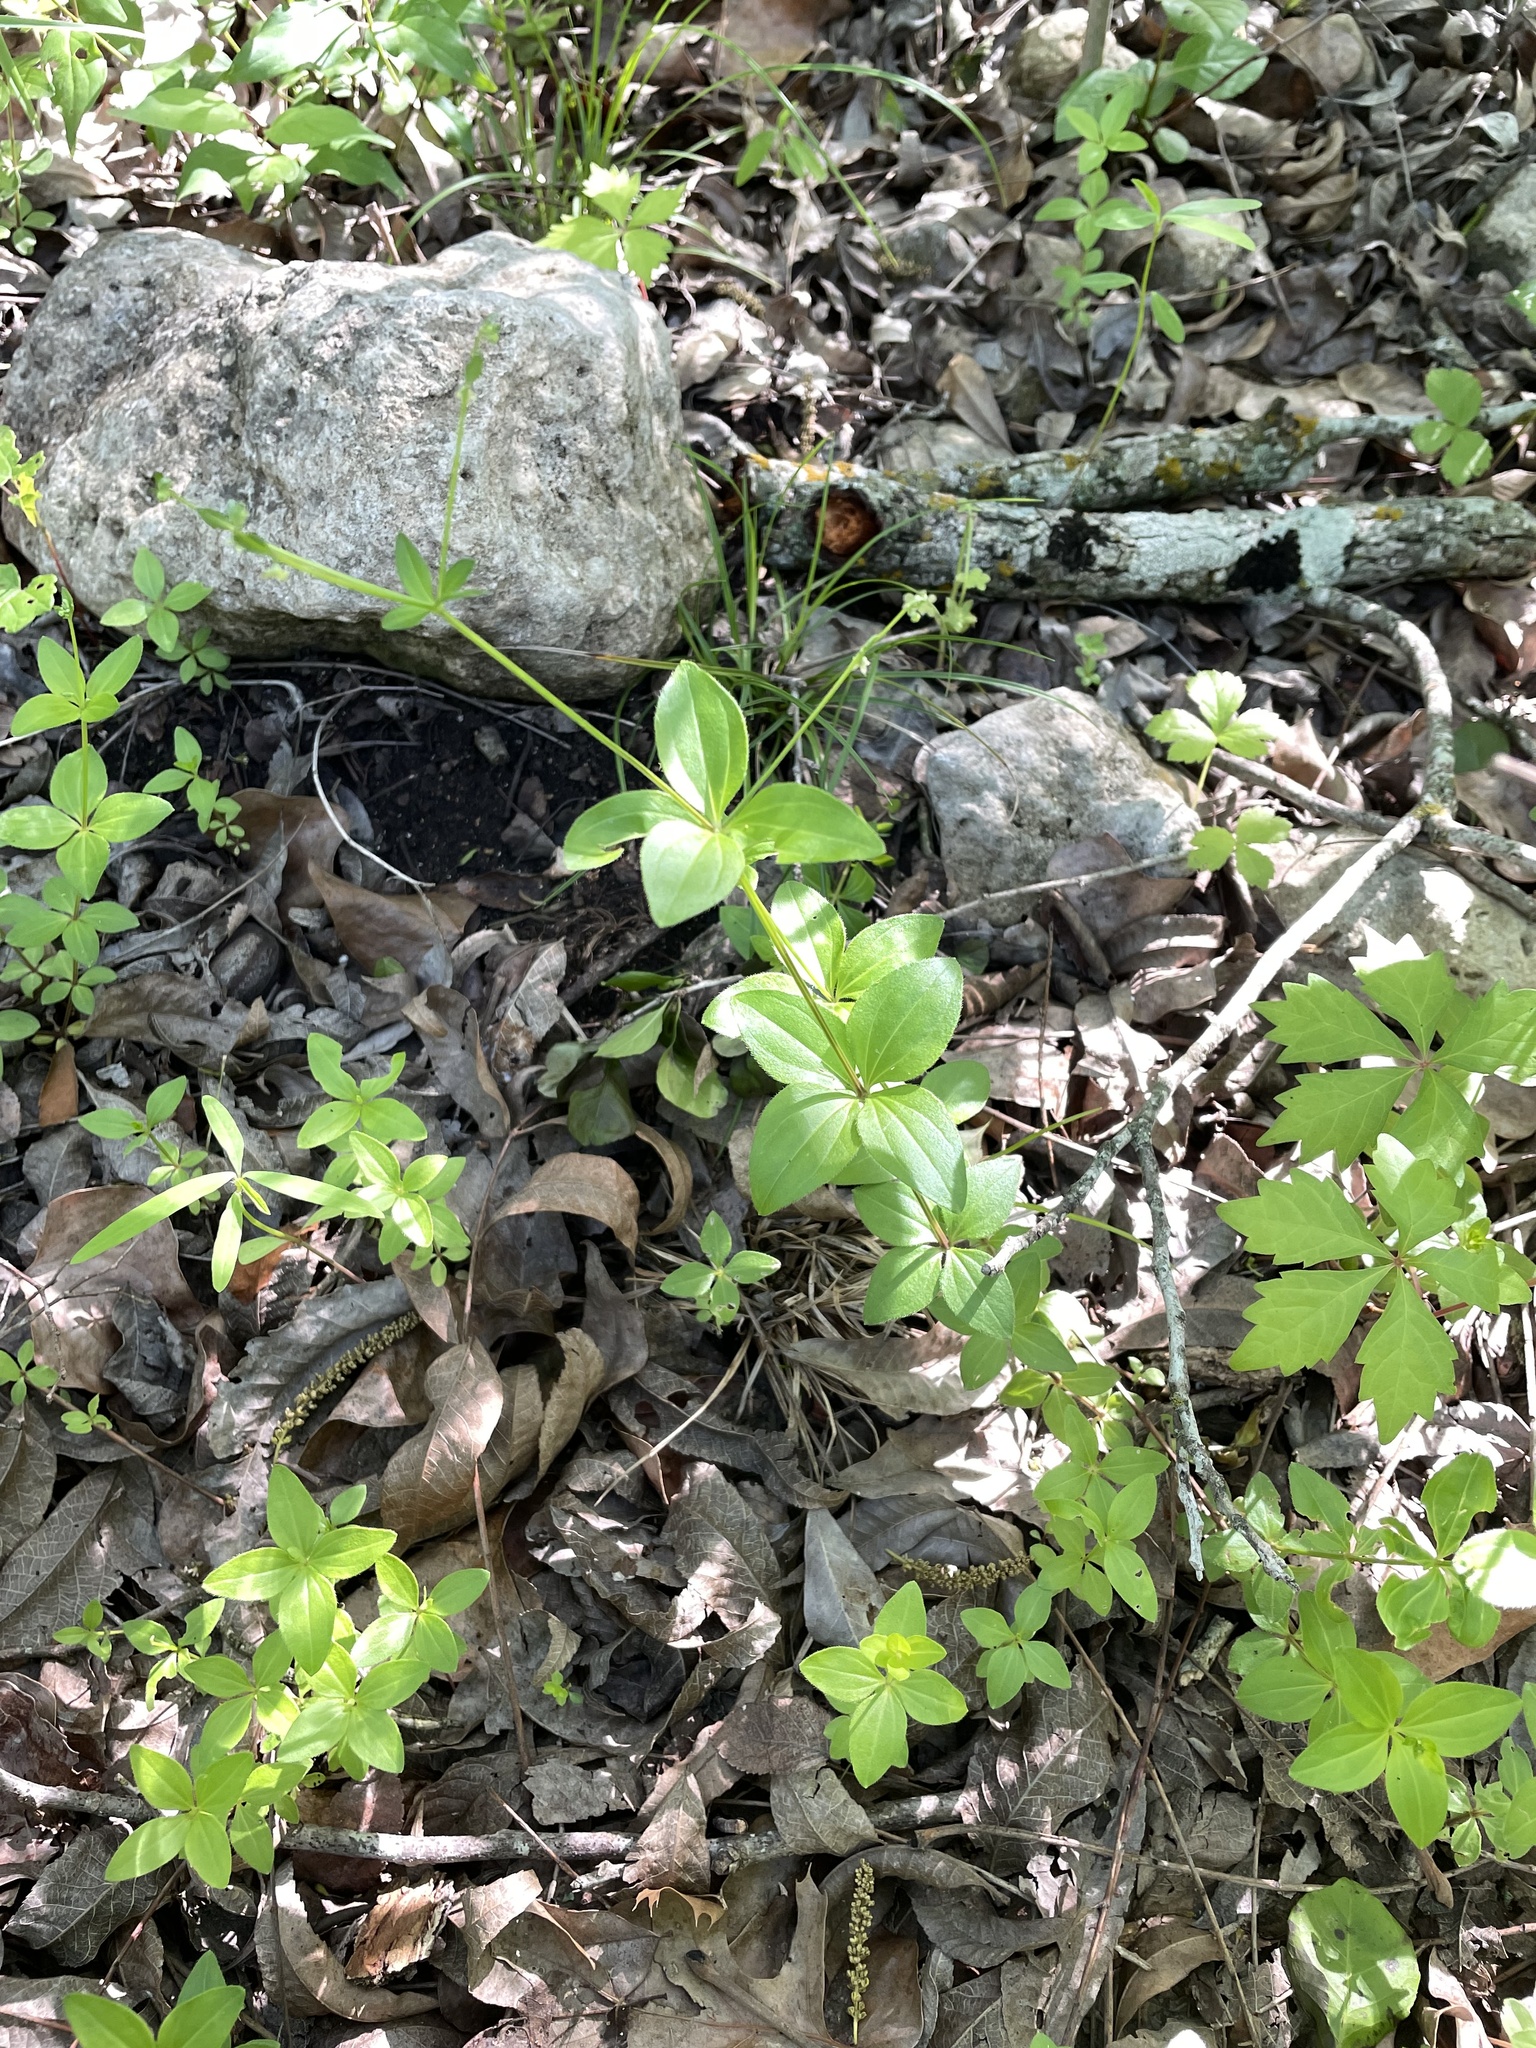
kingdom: Plantae
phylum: Tracheophyta
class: Magnoliopsida
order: Gentianales
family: Rubiaceae
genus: Galium
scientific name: Galium circaezans
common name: Forest bedstraw
